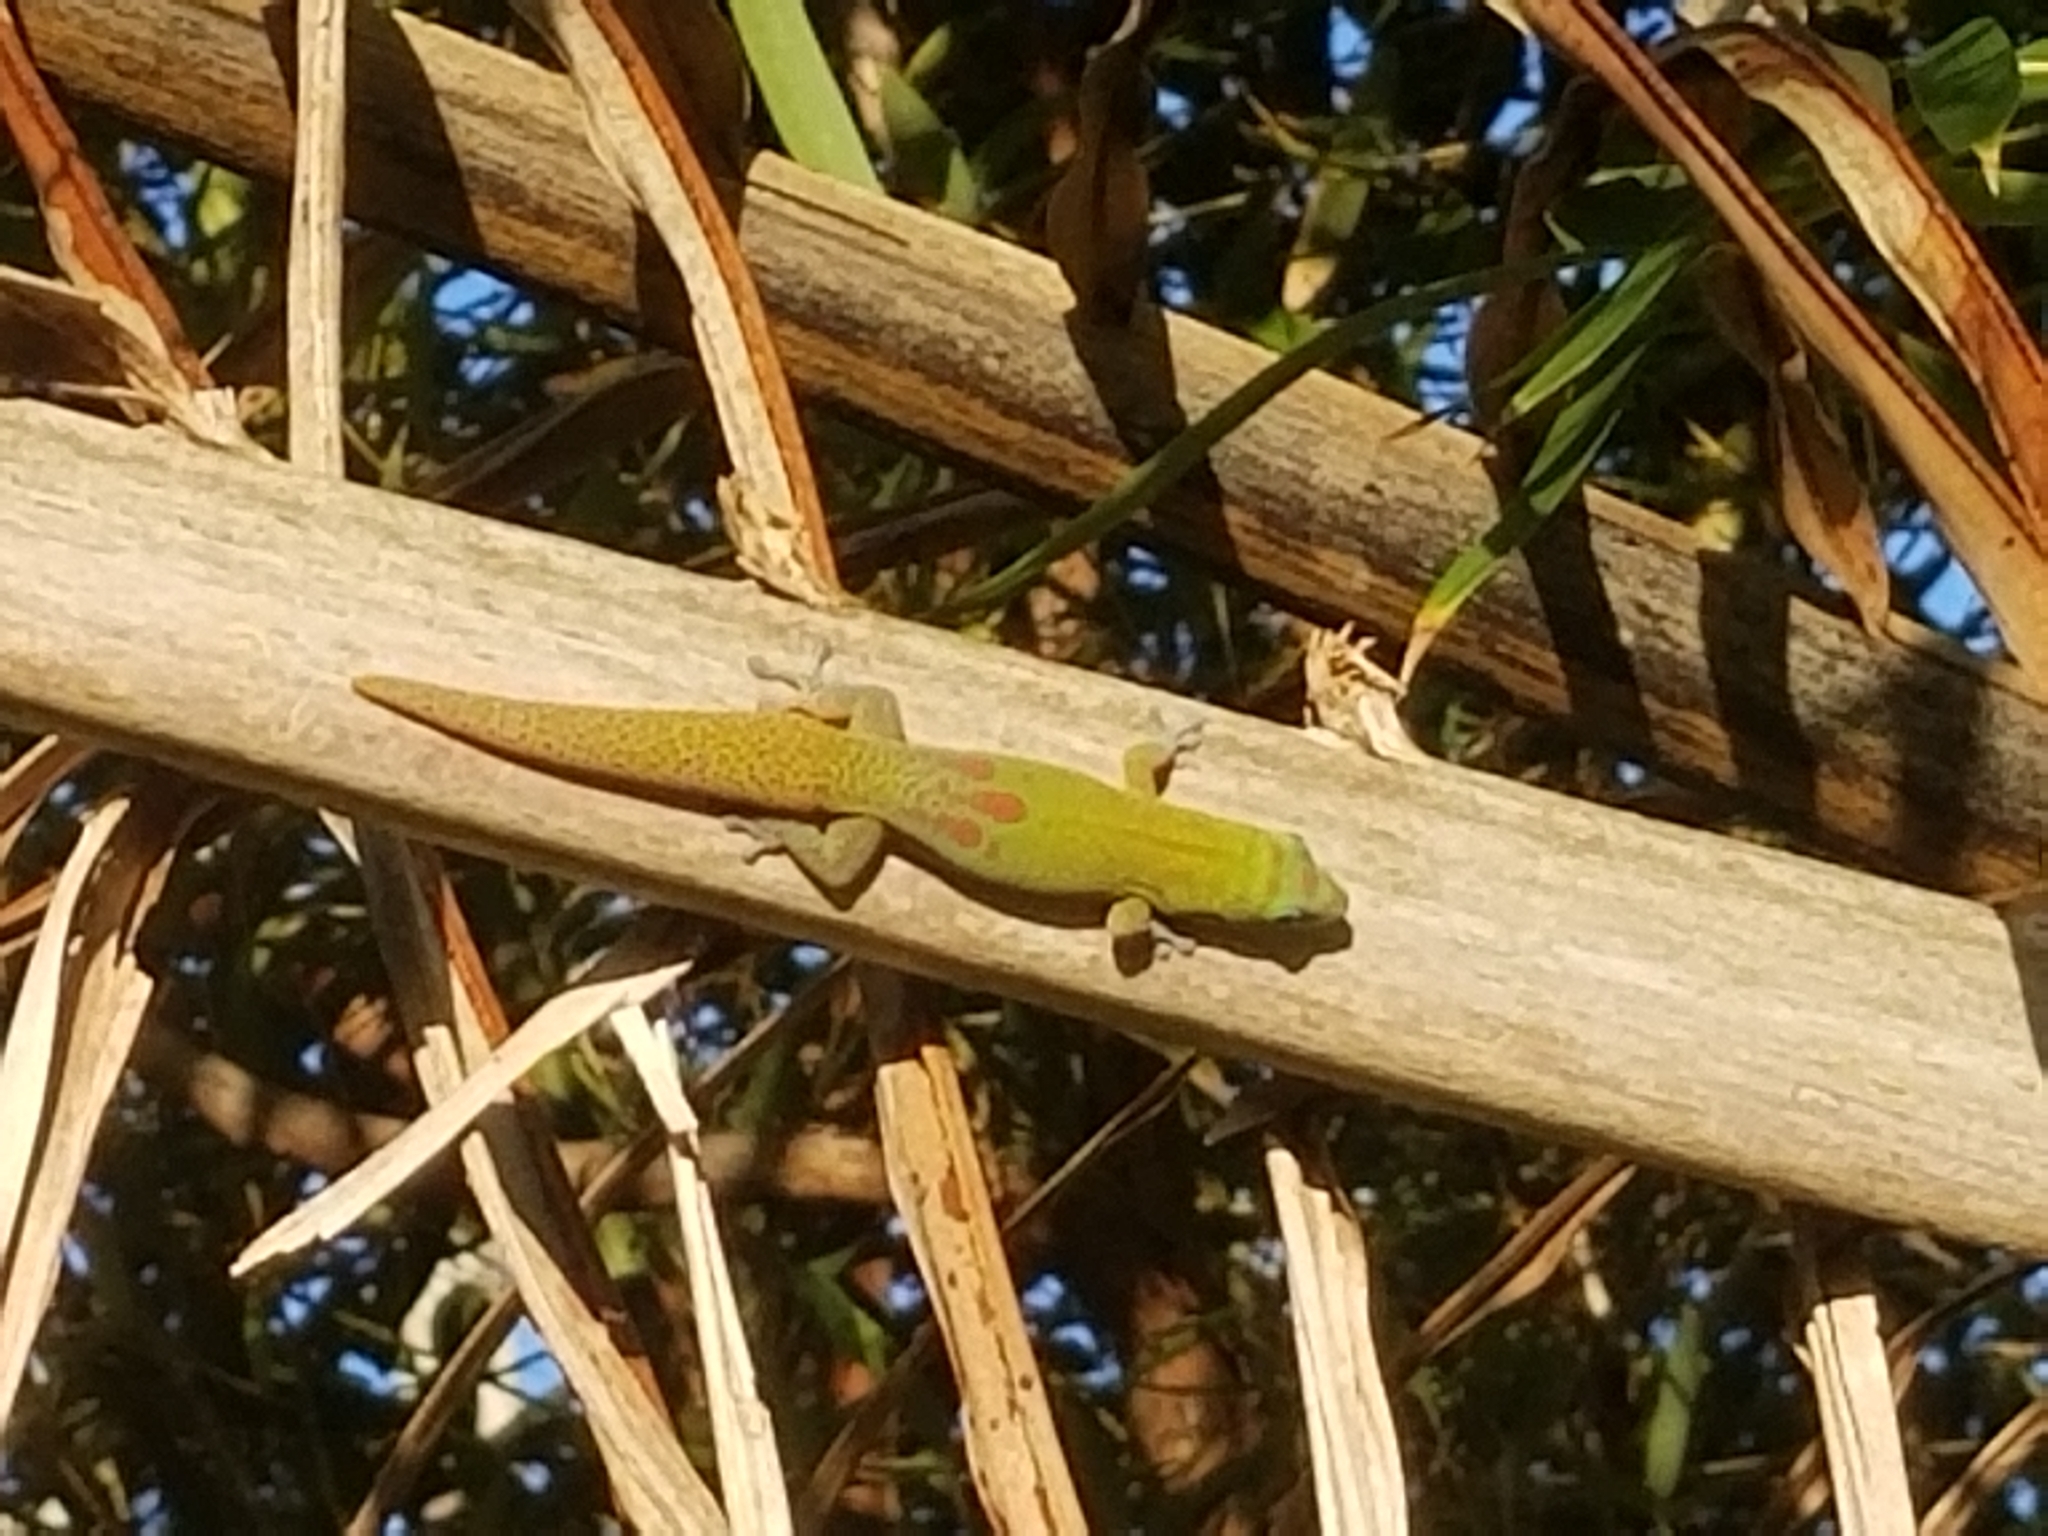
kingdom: Animalia
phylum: Chordata
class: Squamata
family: Gekkonidae
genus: Phelsuma
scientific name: Phelsuma laticauda
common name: Gold dust day gecko
